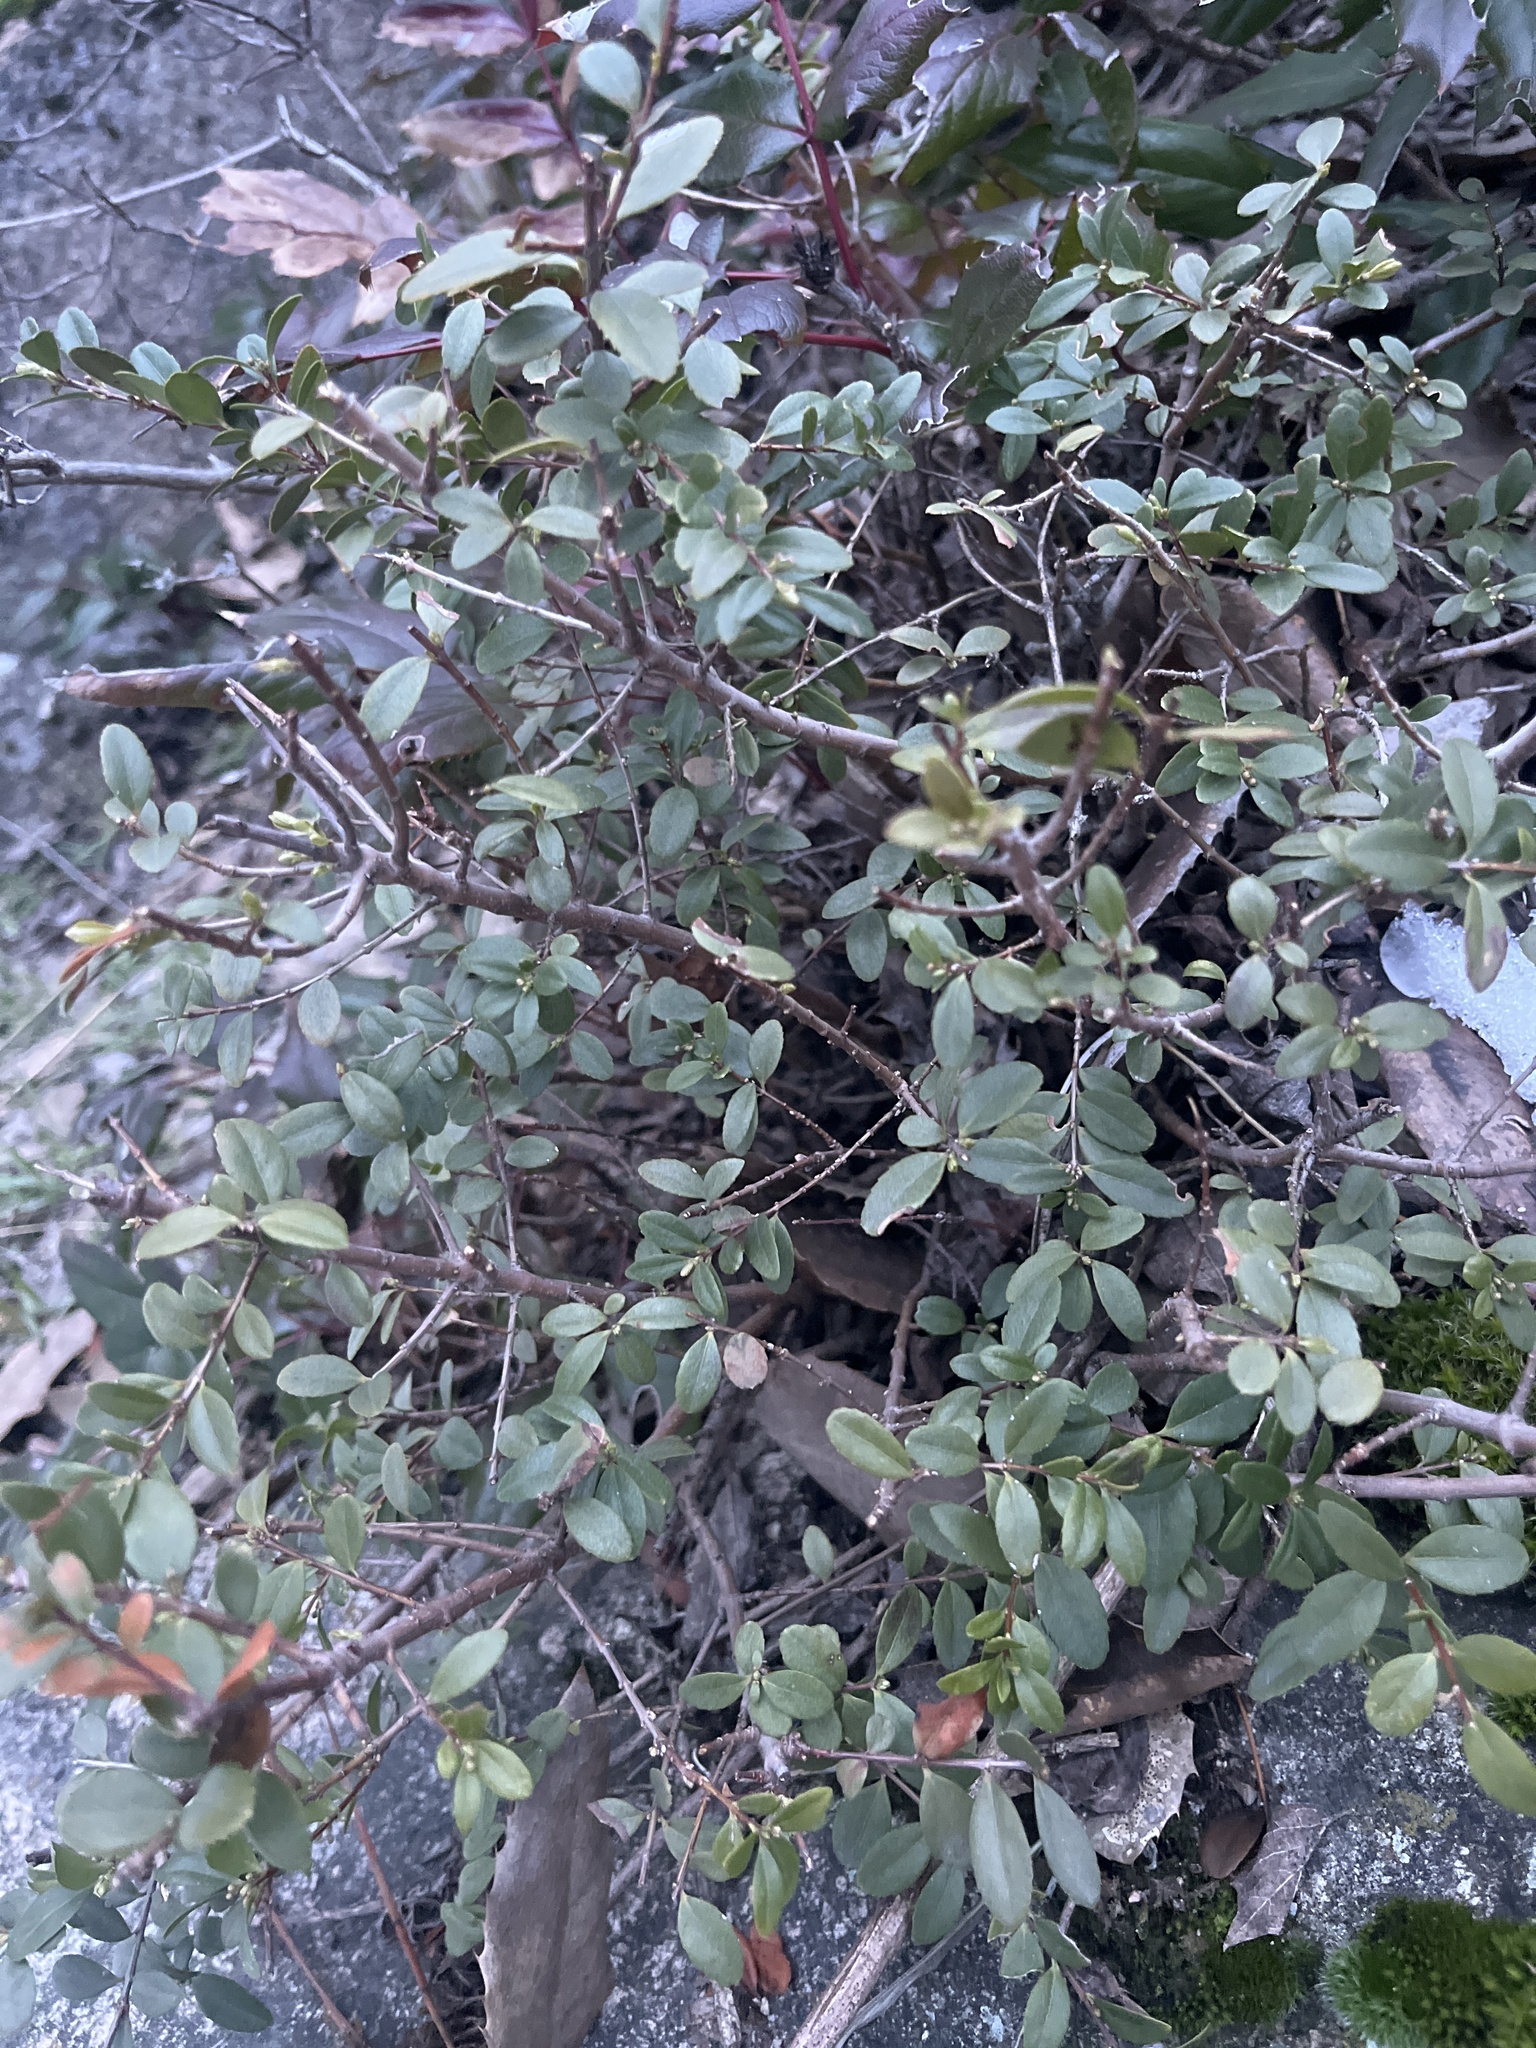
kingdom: Plantae
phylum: Tracheophyta
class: Magnoliopsida
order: Celastrales
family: Celastraceae
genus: Paxistima
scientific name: Paxistima myrsinites
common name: Mountain-lover
